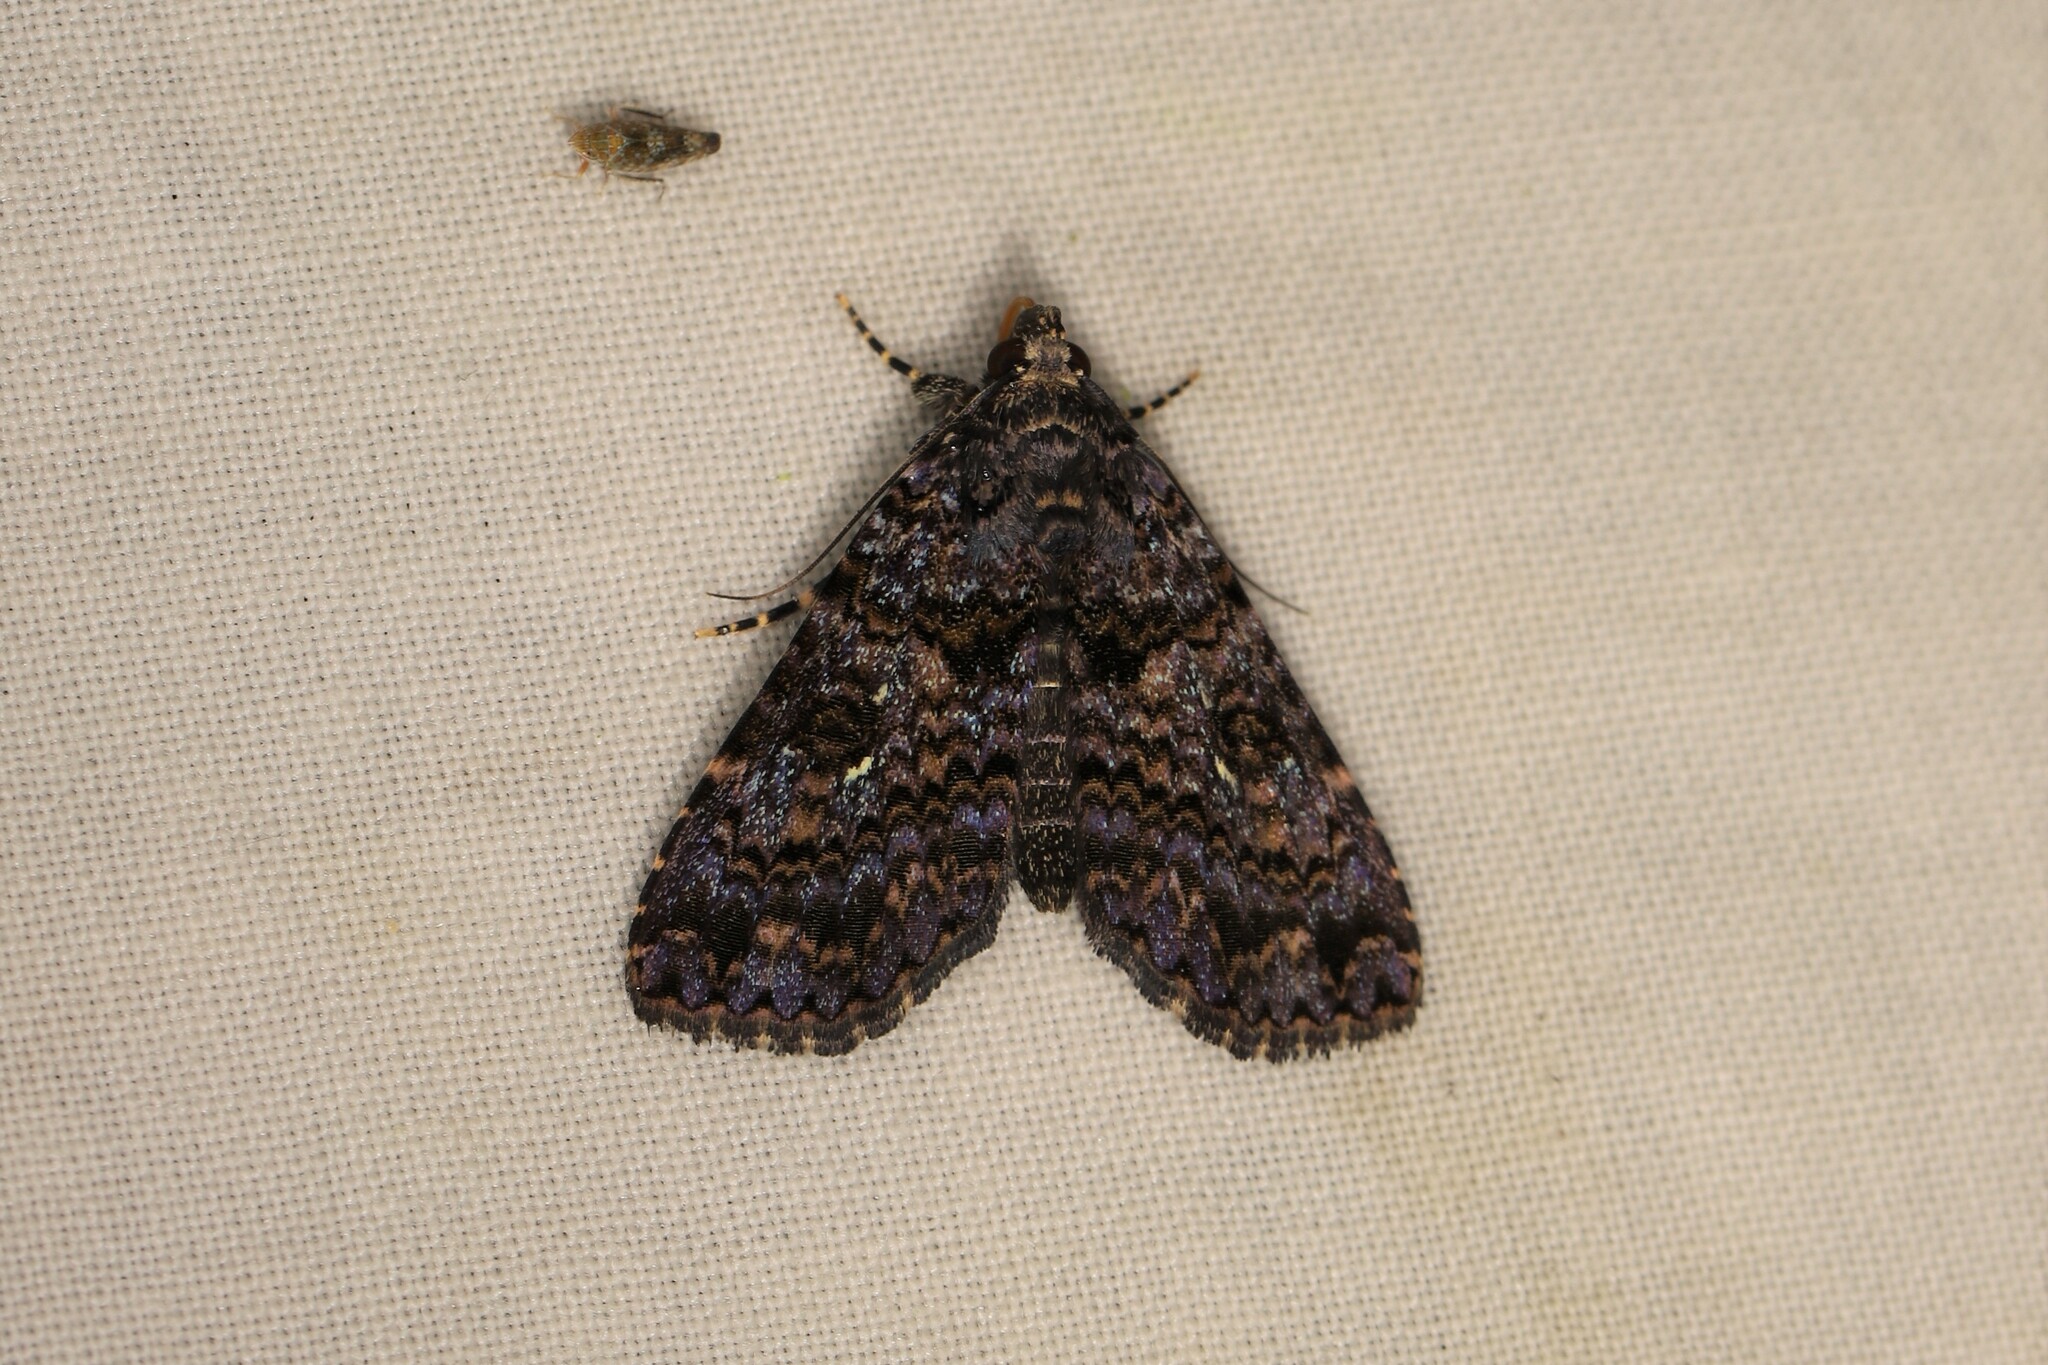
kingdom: Animalia
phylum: Arthropoda
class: Insecta
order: Lepidoptera
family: Erebidae
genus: Bithiga
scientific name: Bithiga rubrisparsa
